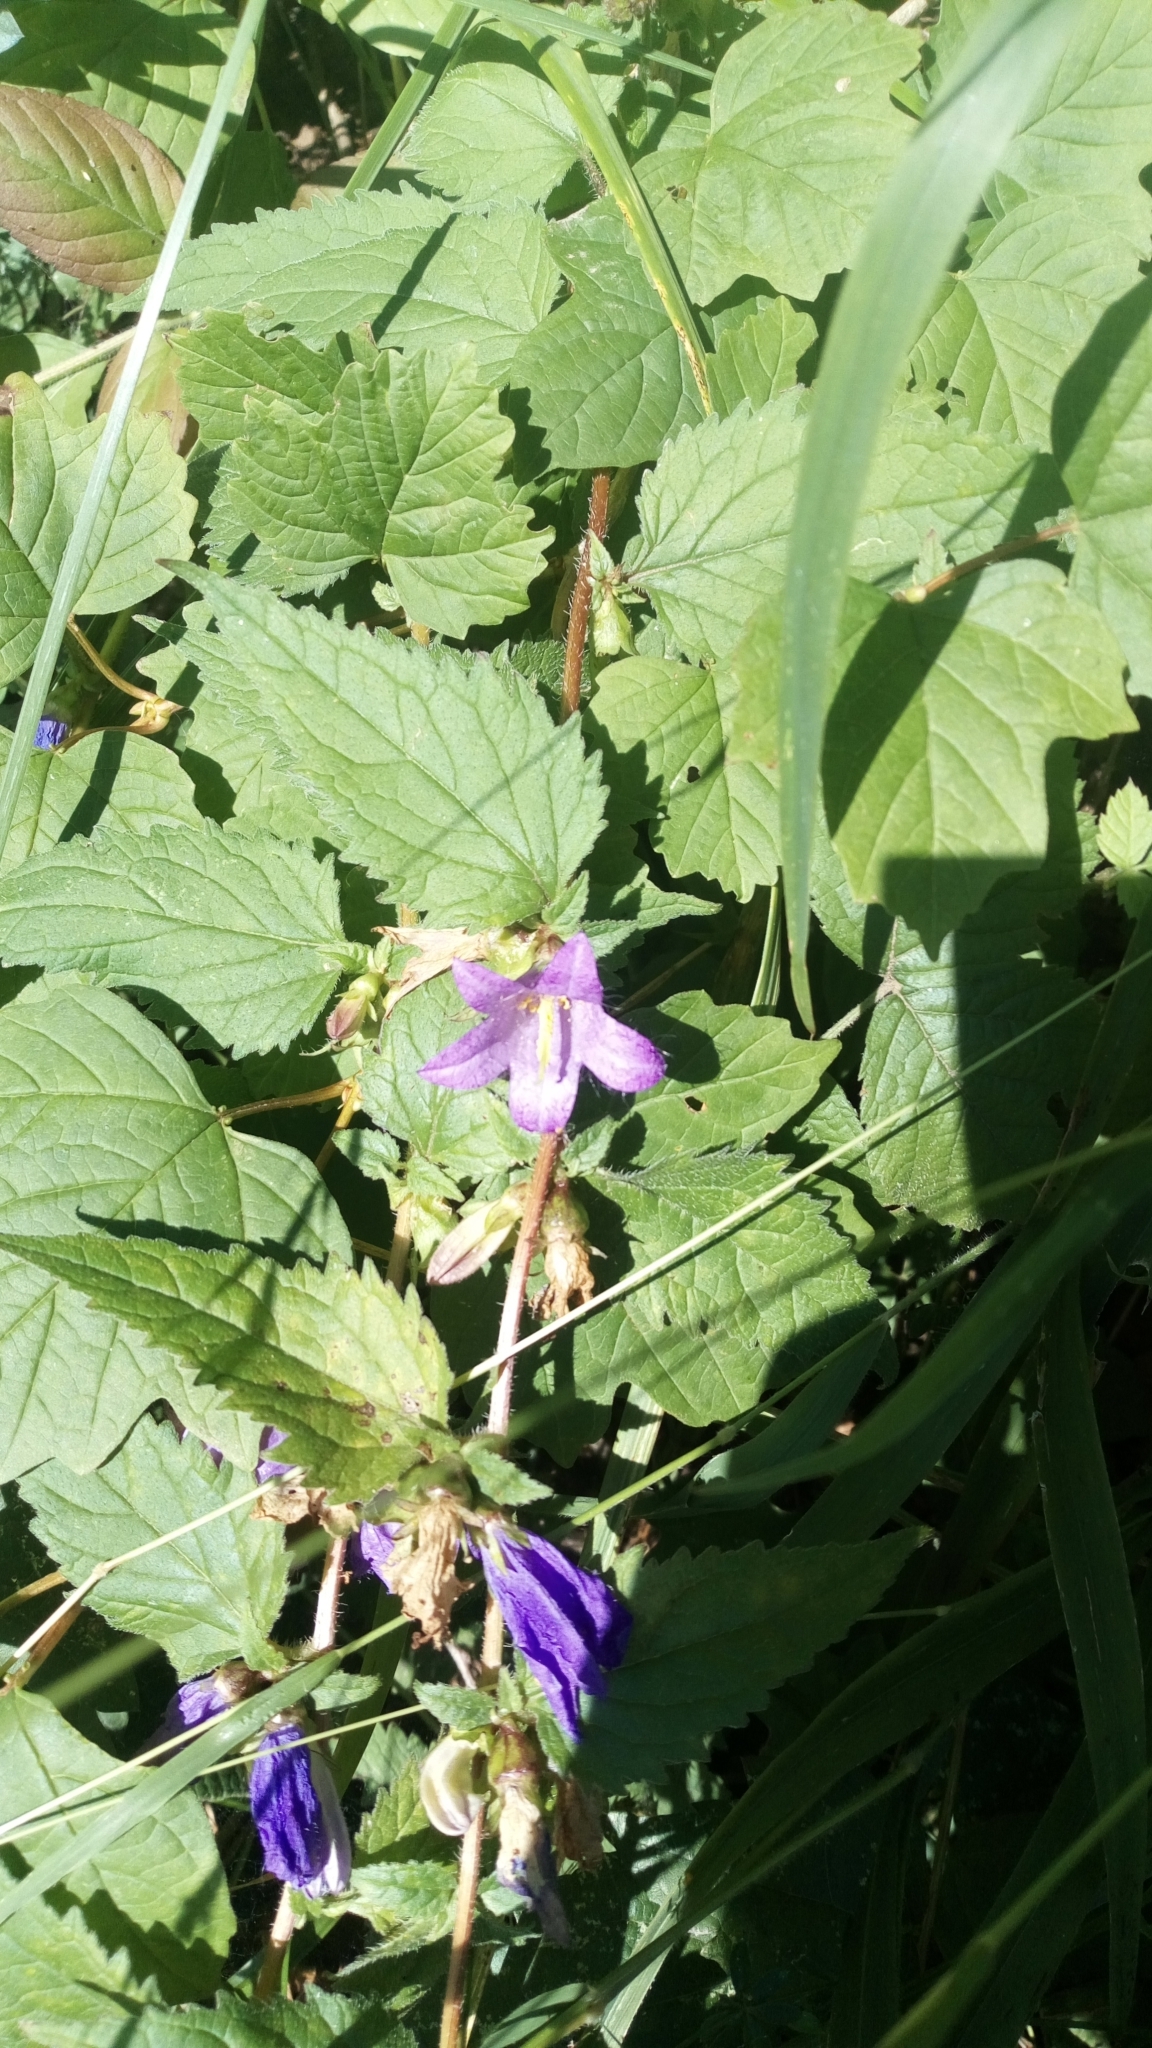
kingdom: Plantae
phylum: Tracheophyta
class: Magnoliopsida
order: Asterales
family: Campanulaceae
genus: Campanula
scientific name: Campanula trachelium
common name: Nettle-leaved bellflower
